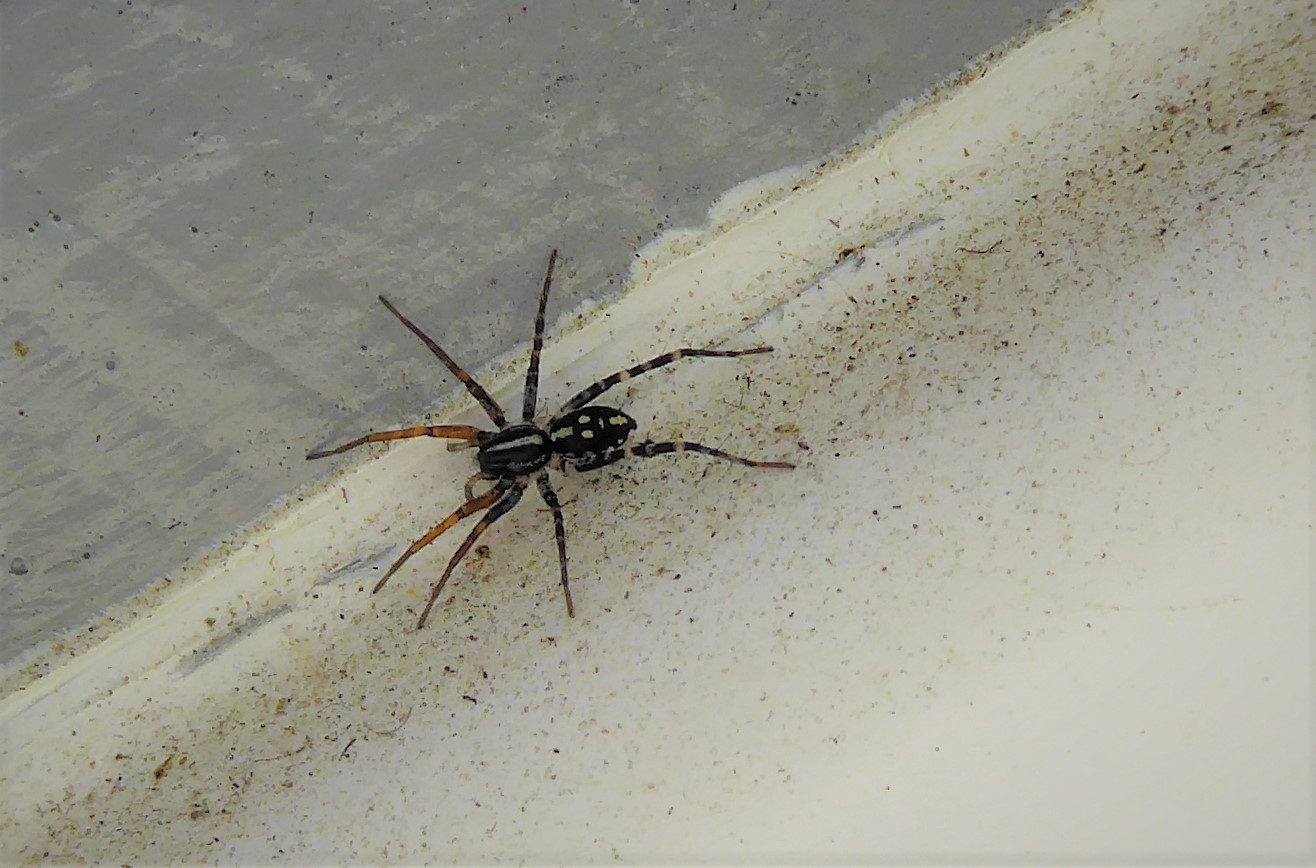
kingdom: Animalia
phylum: Arthropoda
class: Arachnida
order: Araneae
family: Corinnidae
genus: Nyssus
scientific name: Nyssus coloripes
